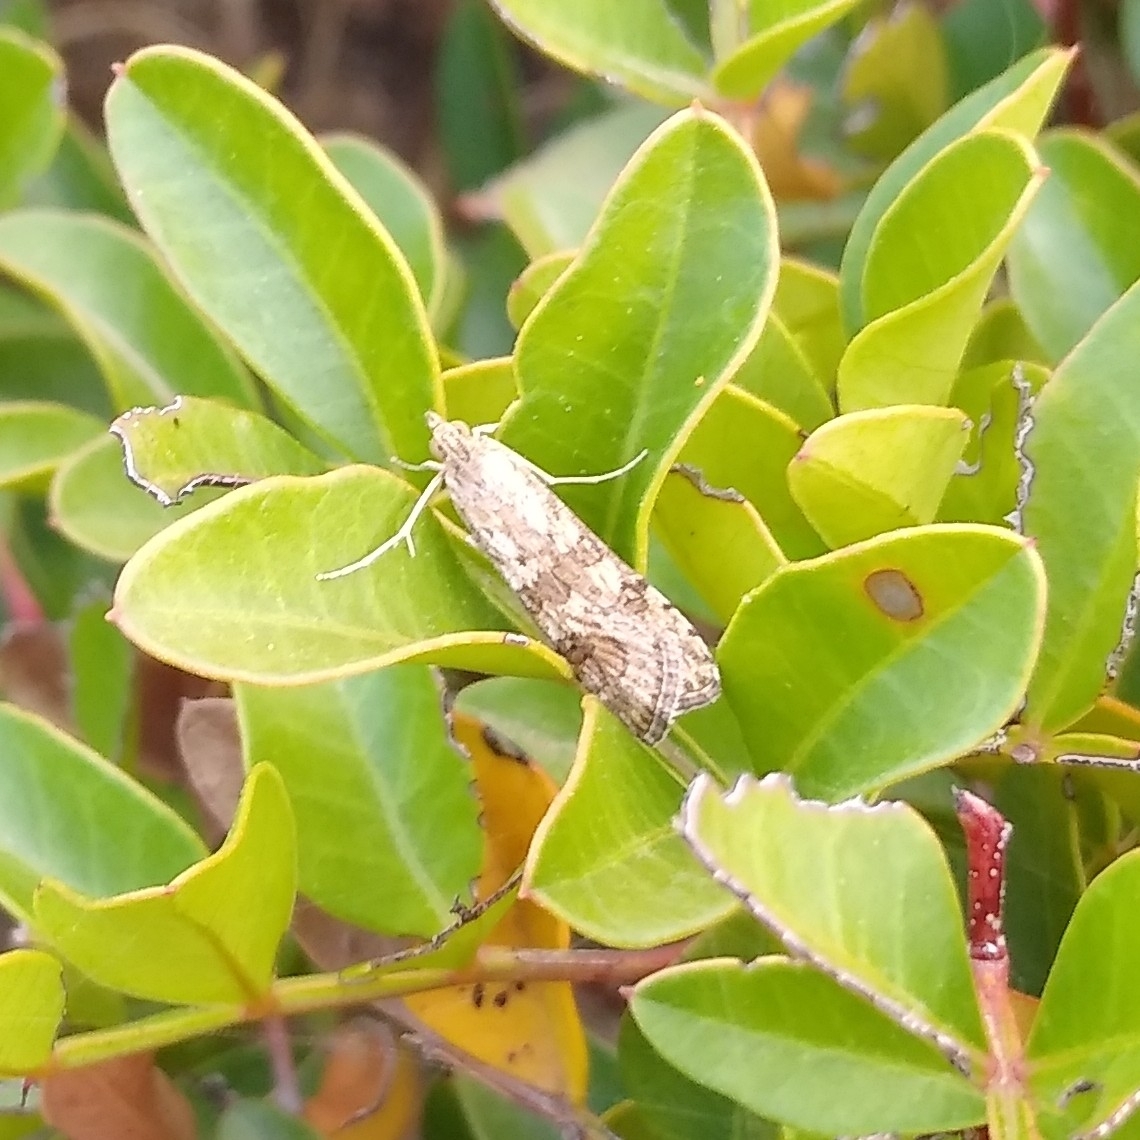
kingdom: Animalia
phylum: Arthropoda
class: Insecta
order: Lepidoptera
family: Crambidae
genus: Nomophila
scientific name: Nomophila noctuella
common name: Rush veneer
